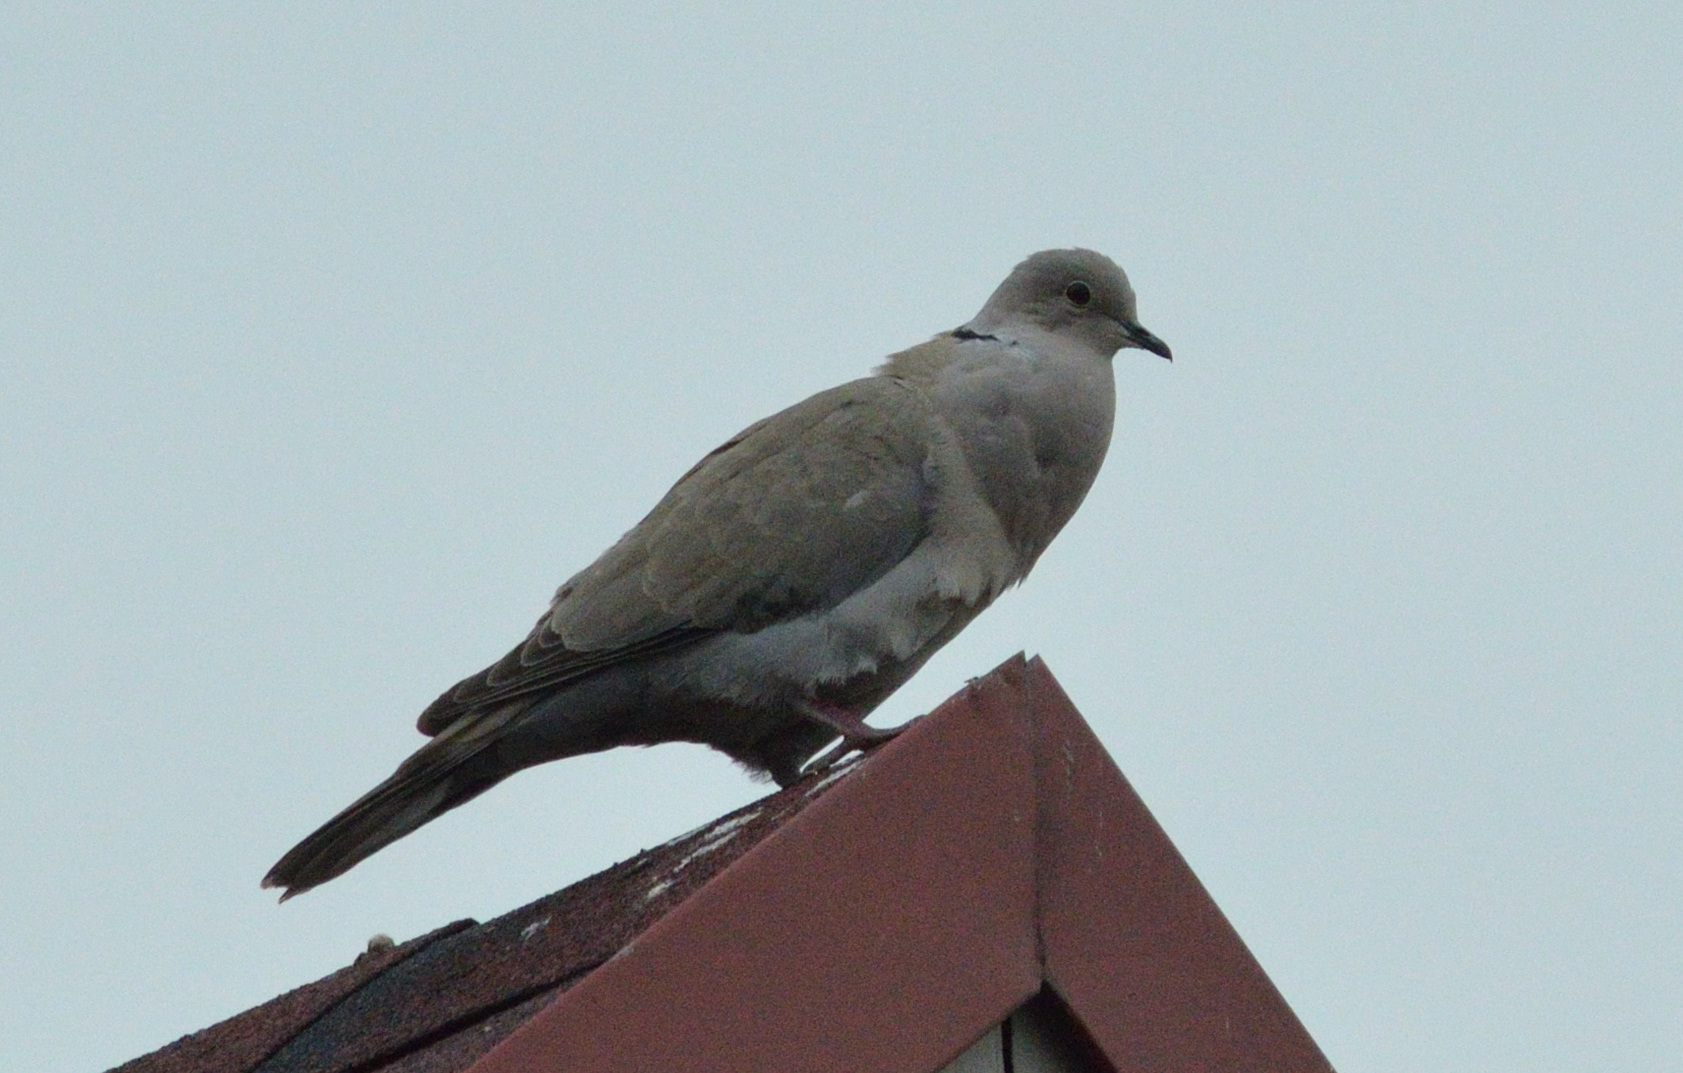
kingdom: Animalia
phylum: Chordata
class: Aves
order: Columbiformes
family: Columbidae
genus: Streptopelia
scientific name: Streptopelia decaocto
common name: Eurasian collared dove
